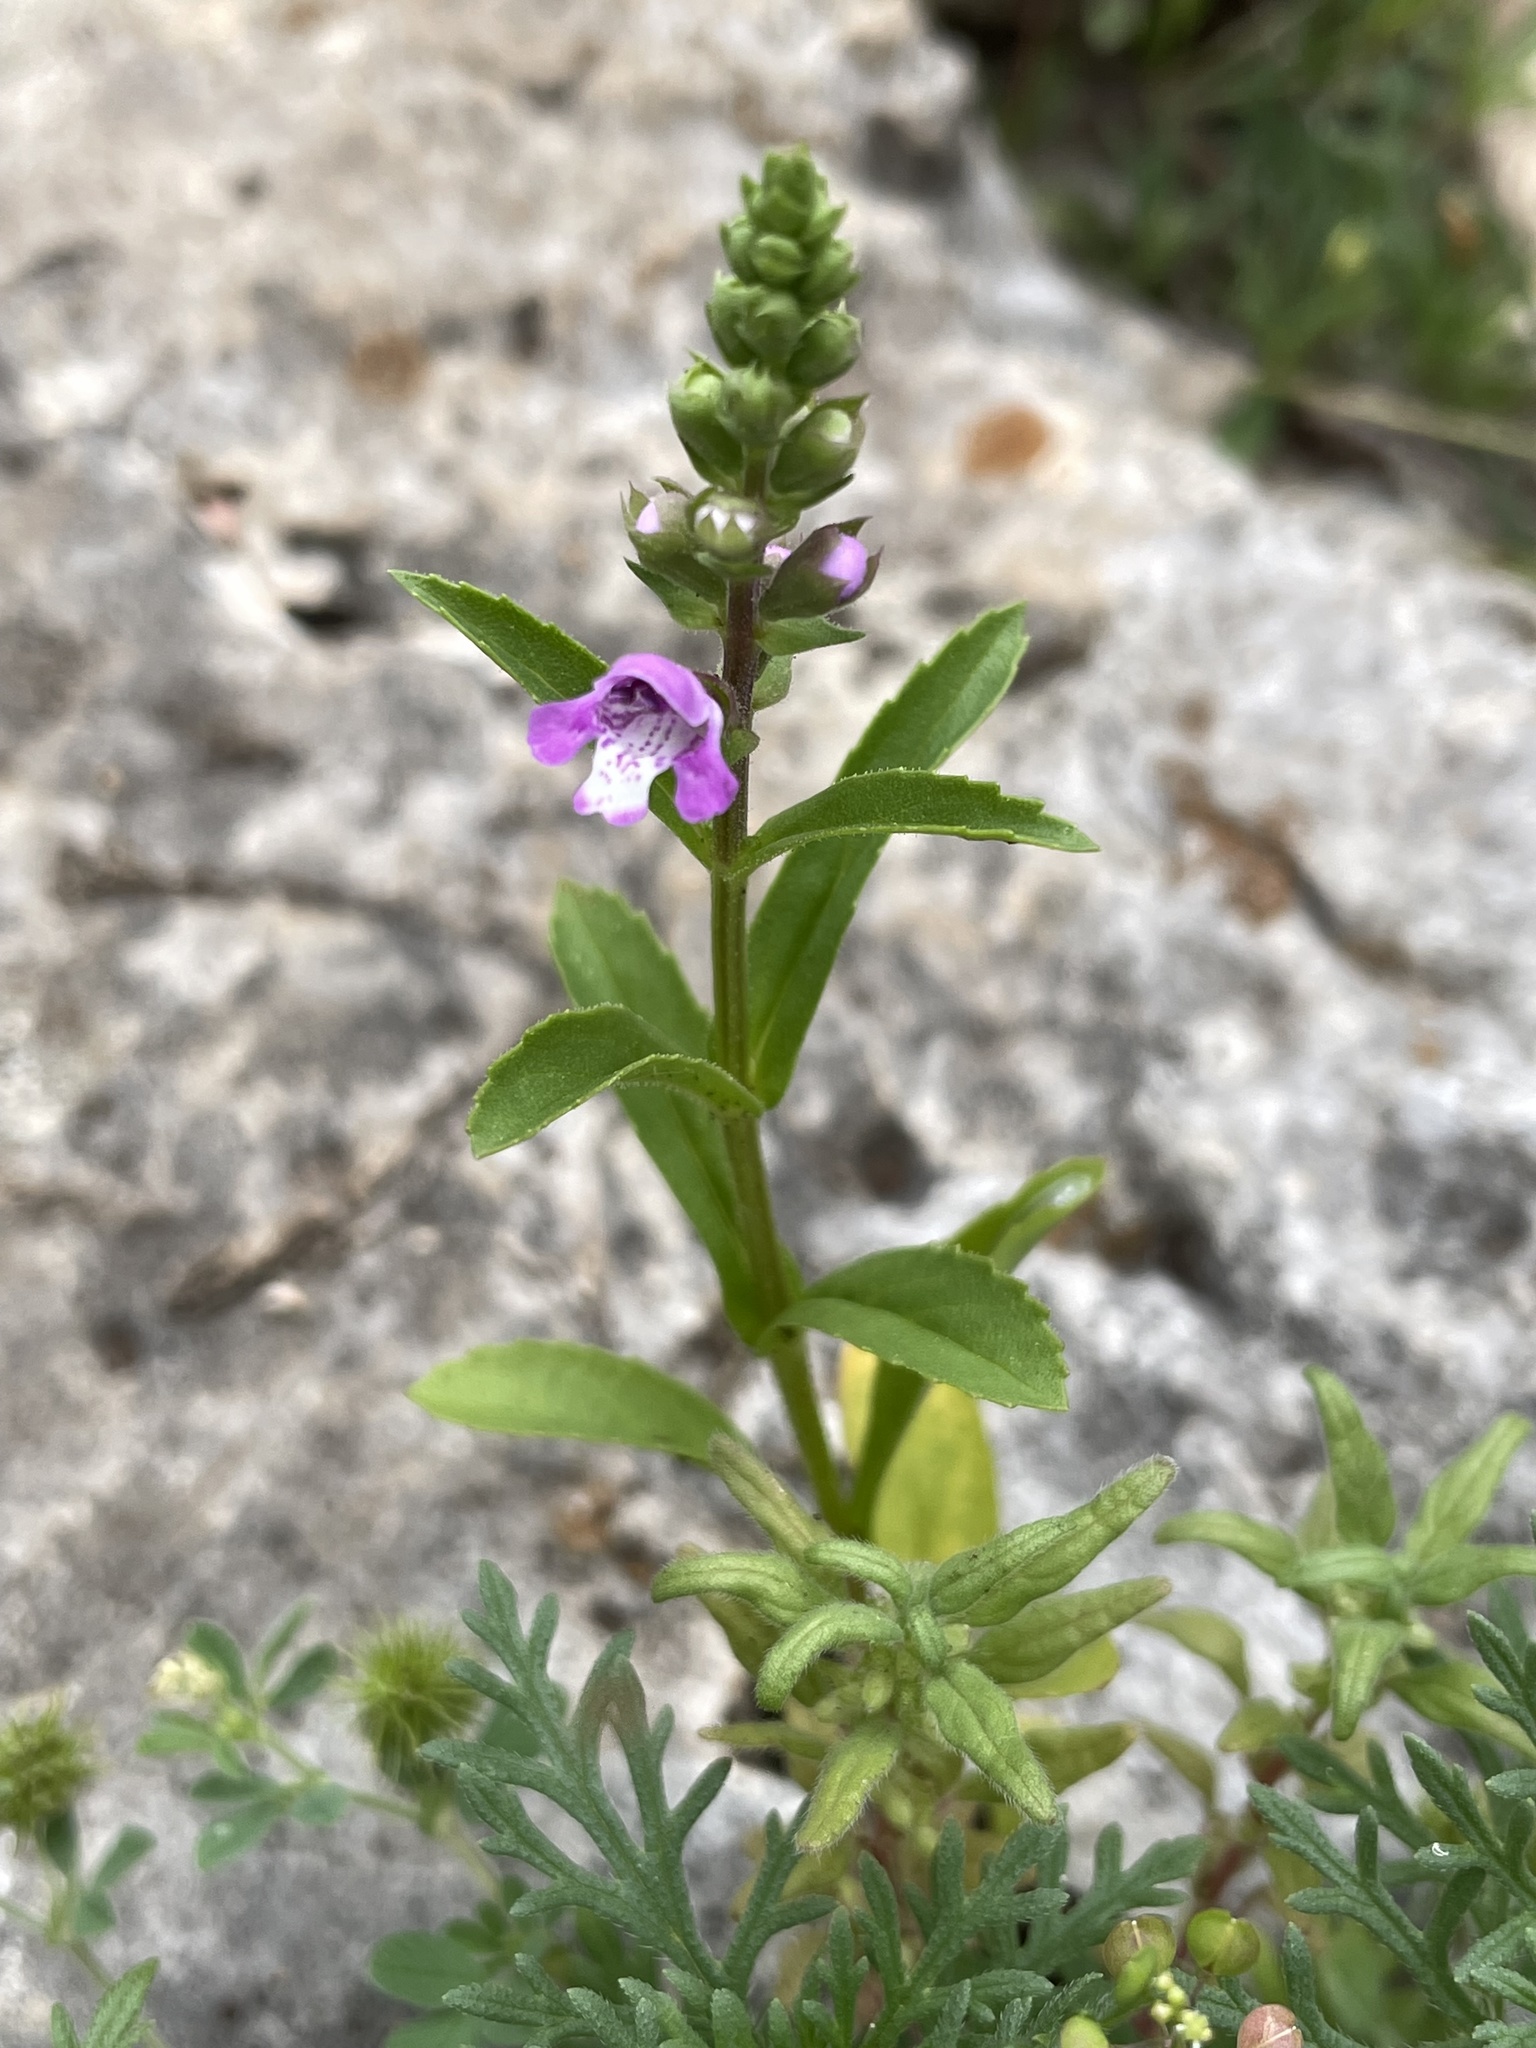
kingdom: Plantae
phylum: Tracheophyta
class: Magnoliopsida
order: Lamiales
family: Lamiaceae
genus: Warnockia
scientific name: Warnockia scutellarioides
